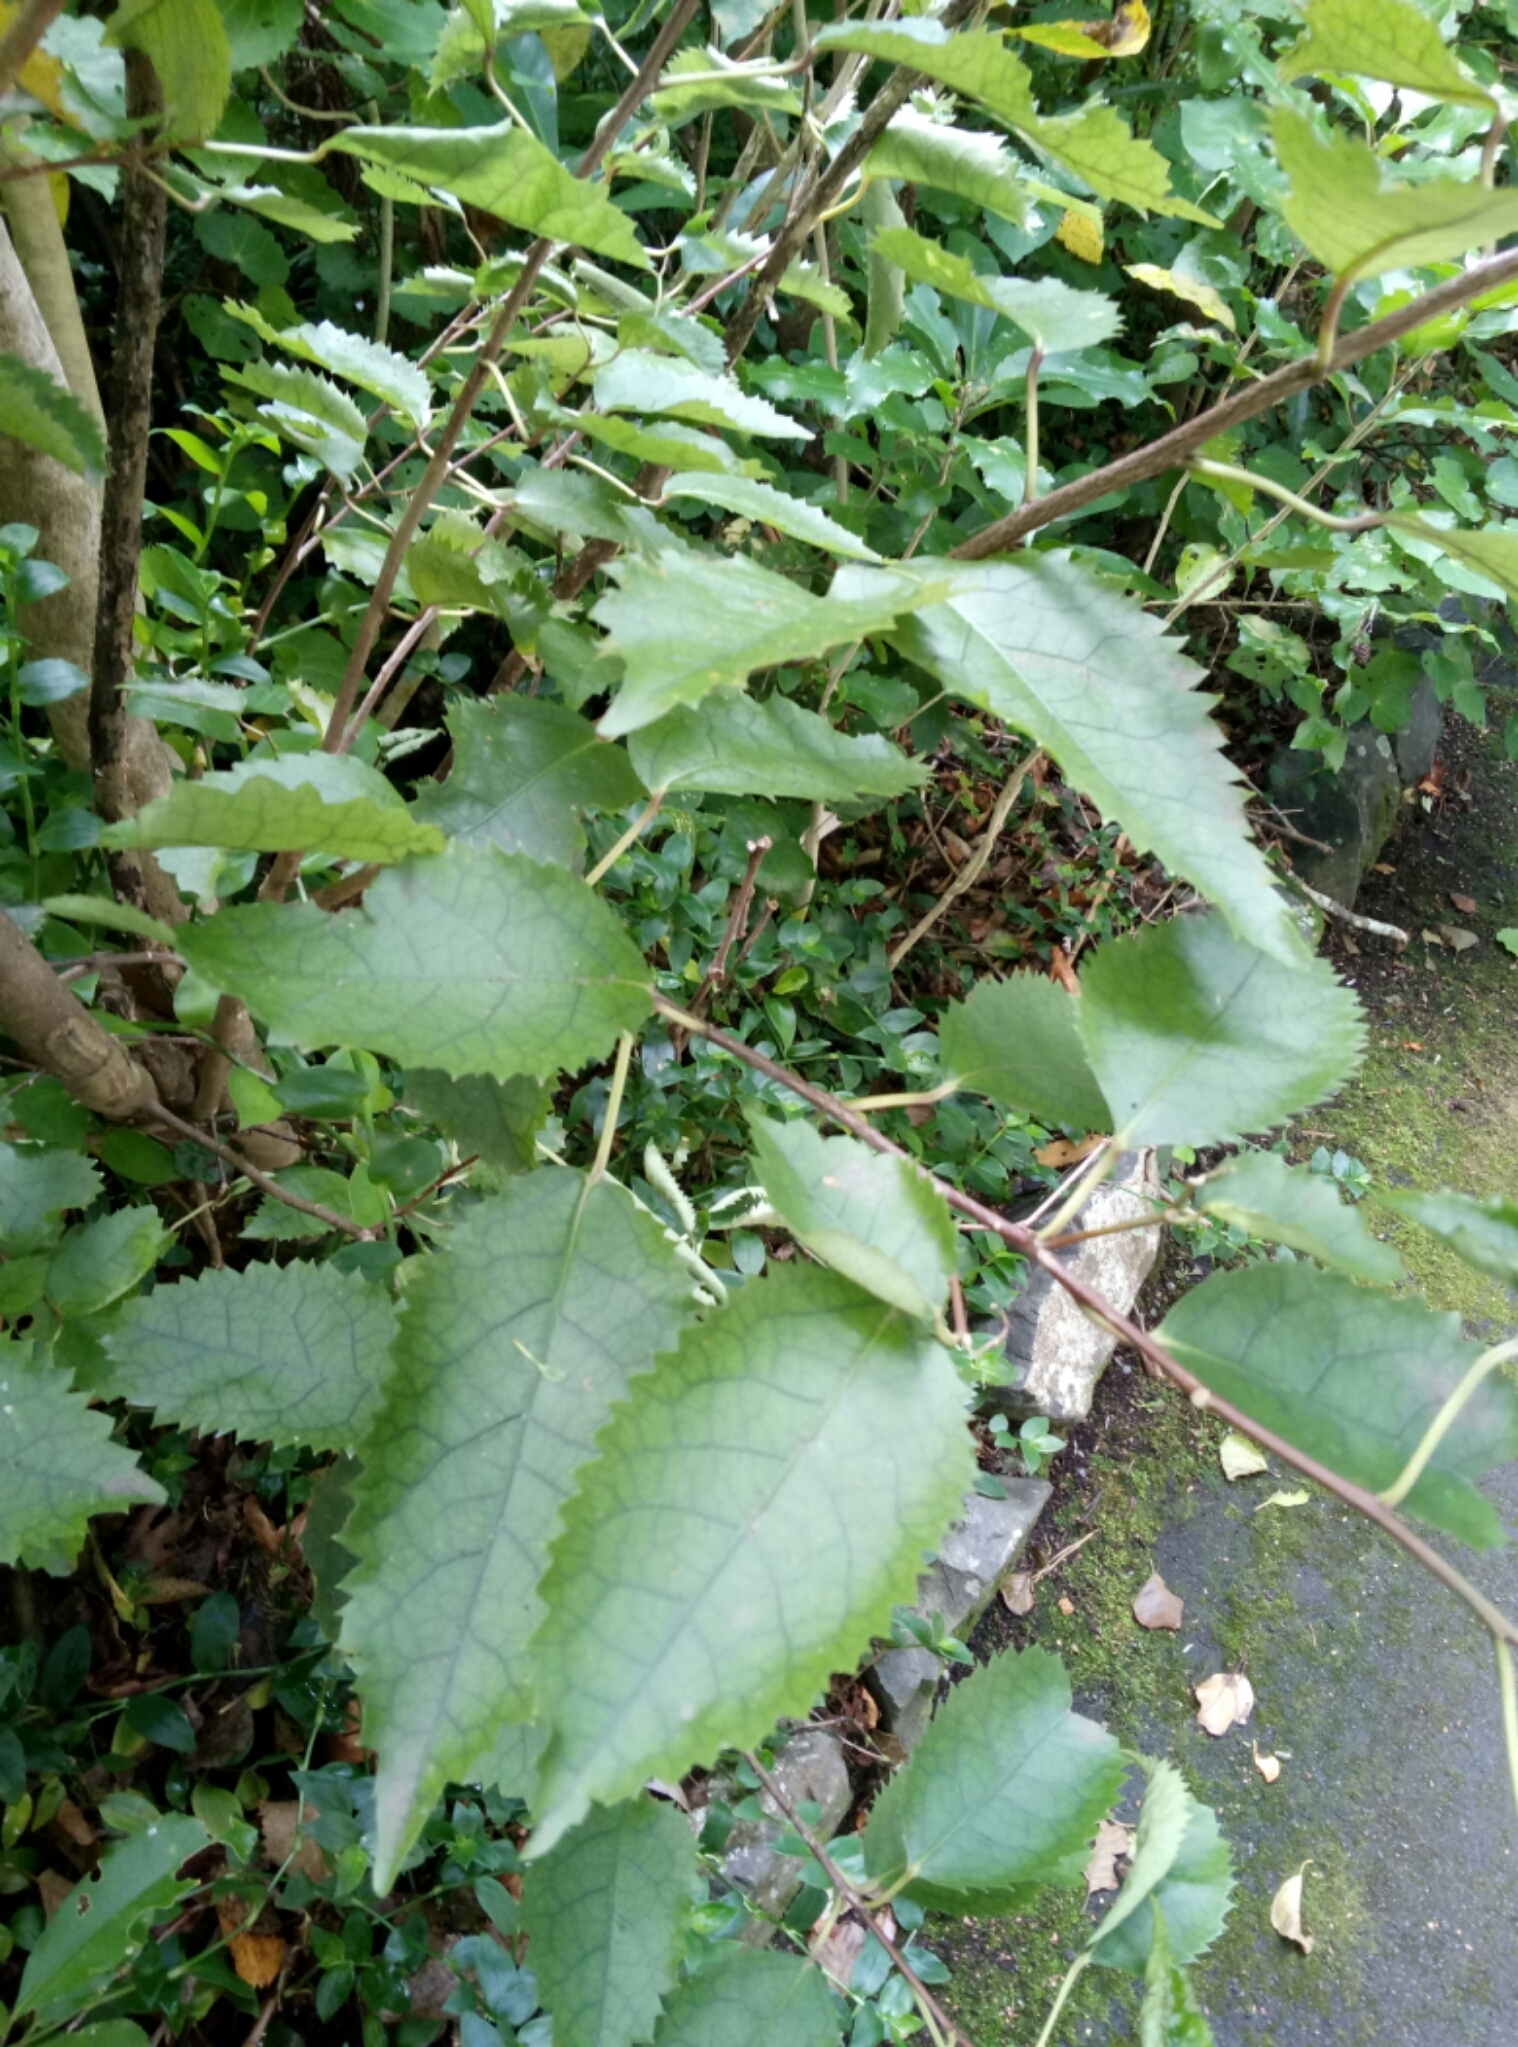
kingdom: Plantae
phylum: Tracheophyta
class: Magnoliopsida
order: Malvales
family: Malvaceae
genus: Hoheria
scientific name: Hoheria populnea
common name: Lacebark
